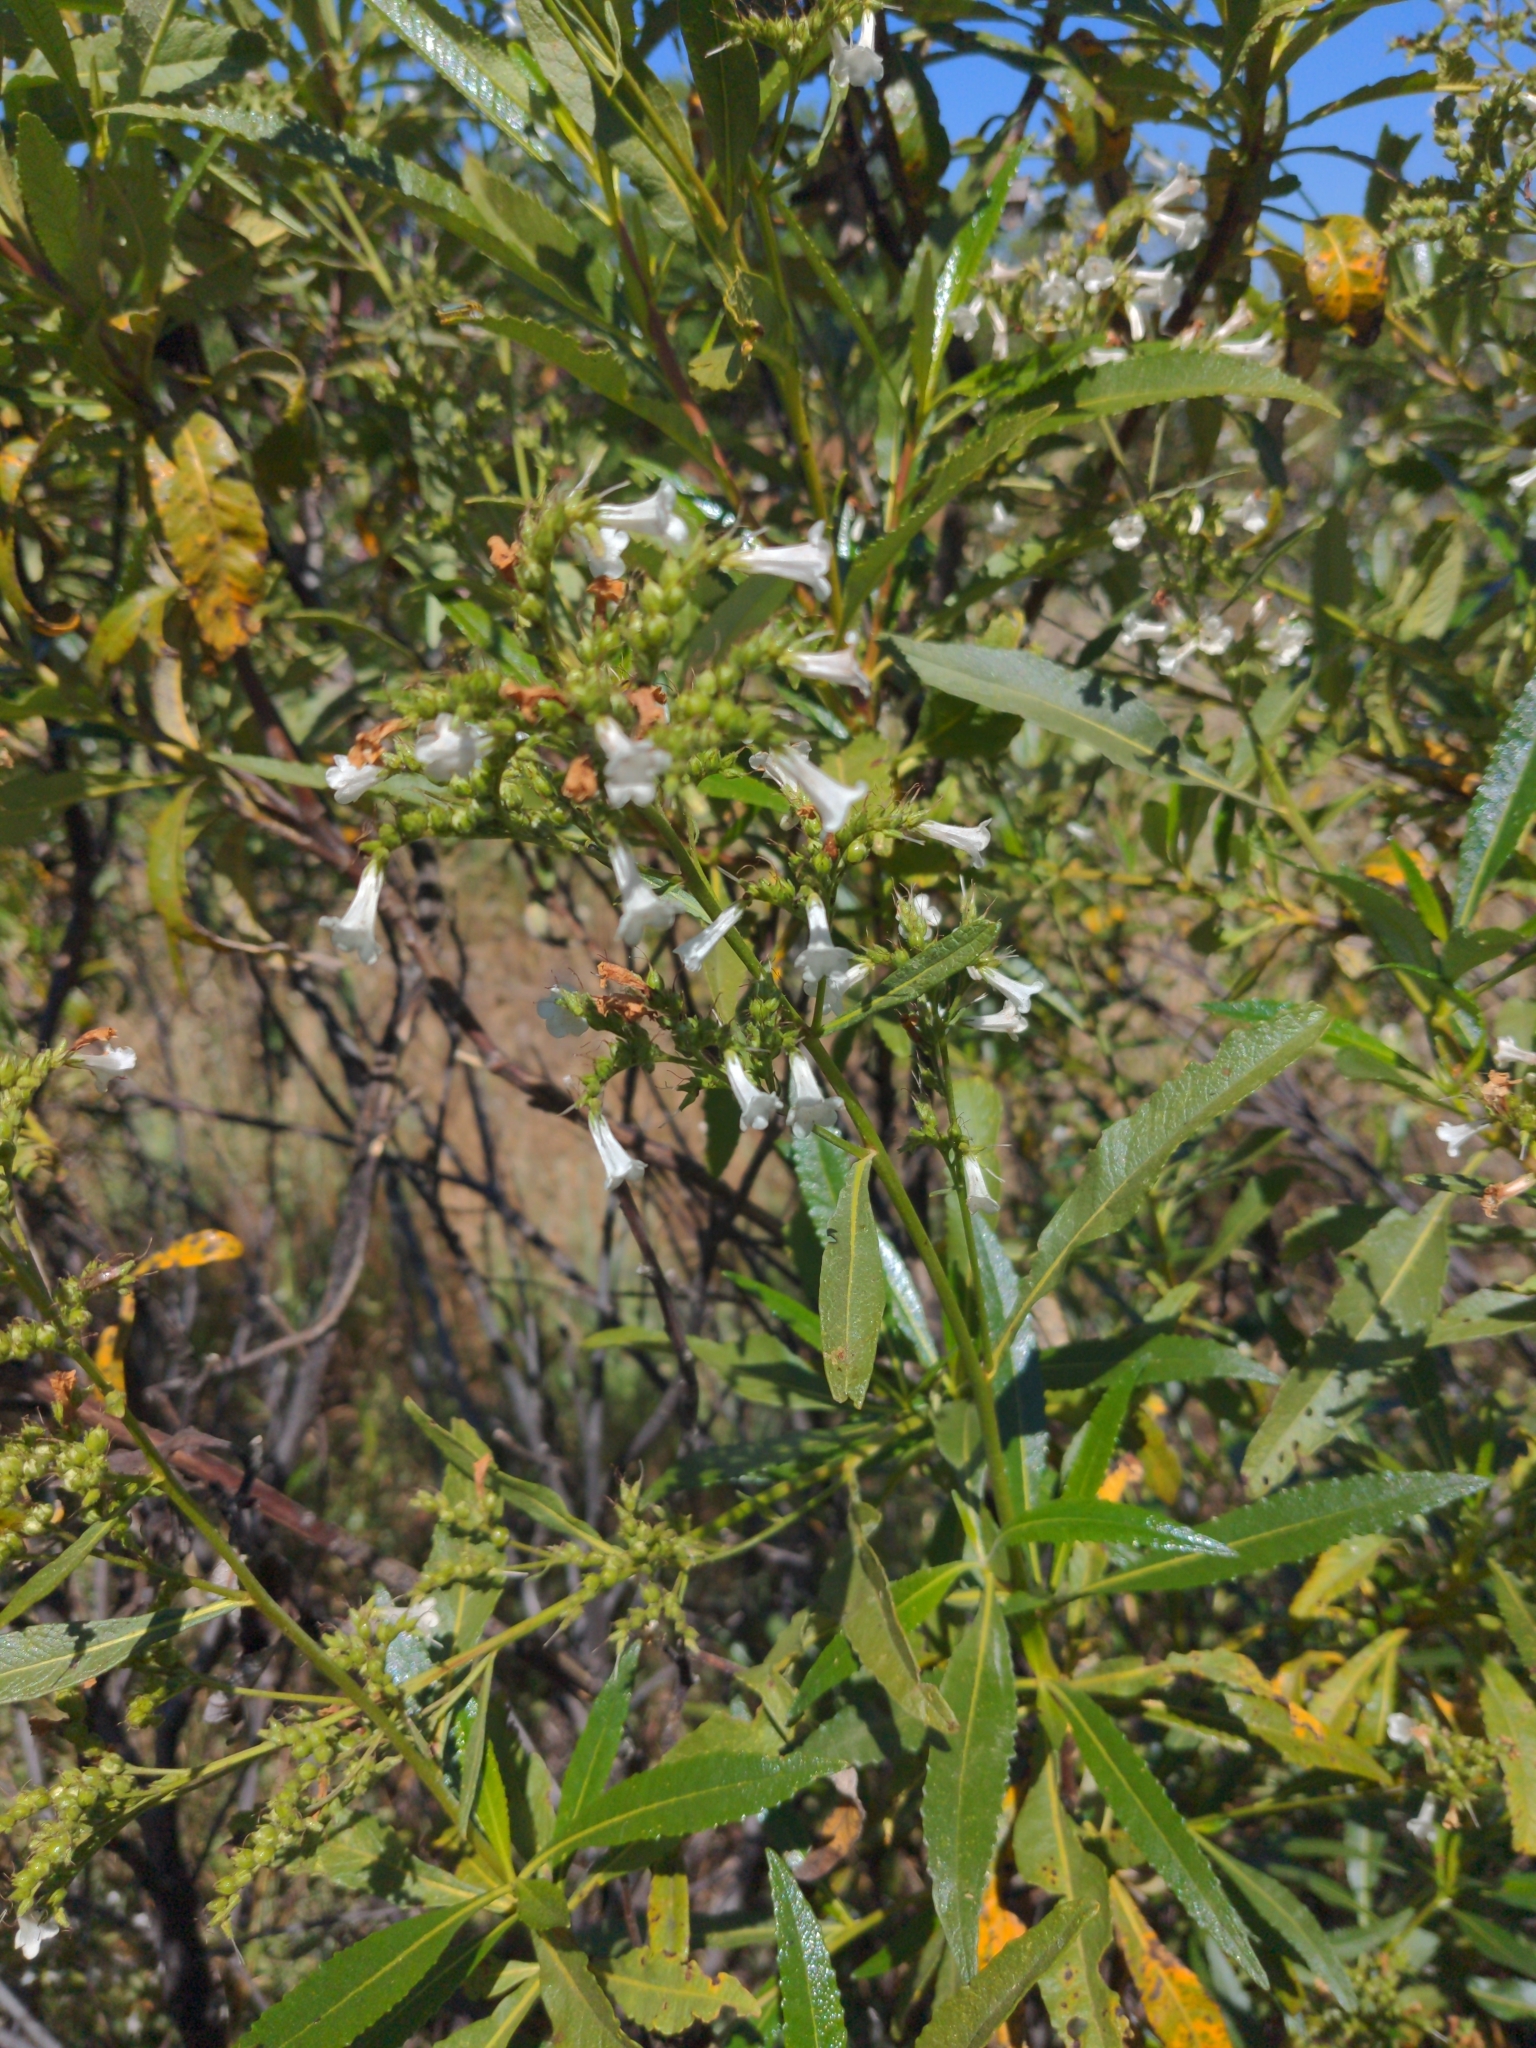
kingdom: Plantae
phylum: Tracheophyta
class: Magnoliopsida
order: Boraginales
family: Namaceae
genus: Eriodictyon
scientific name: Eriodictyon californicum
